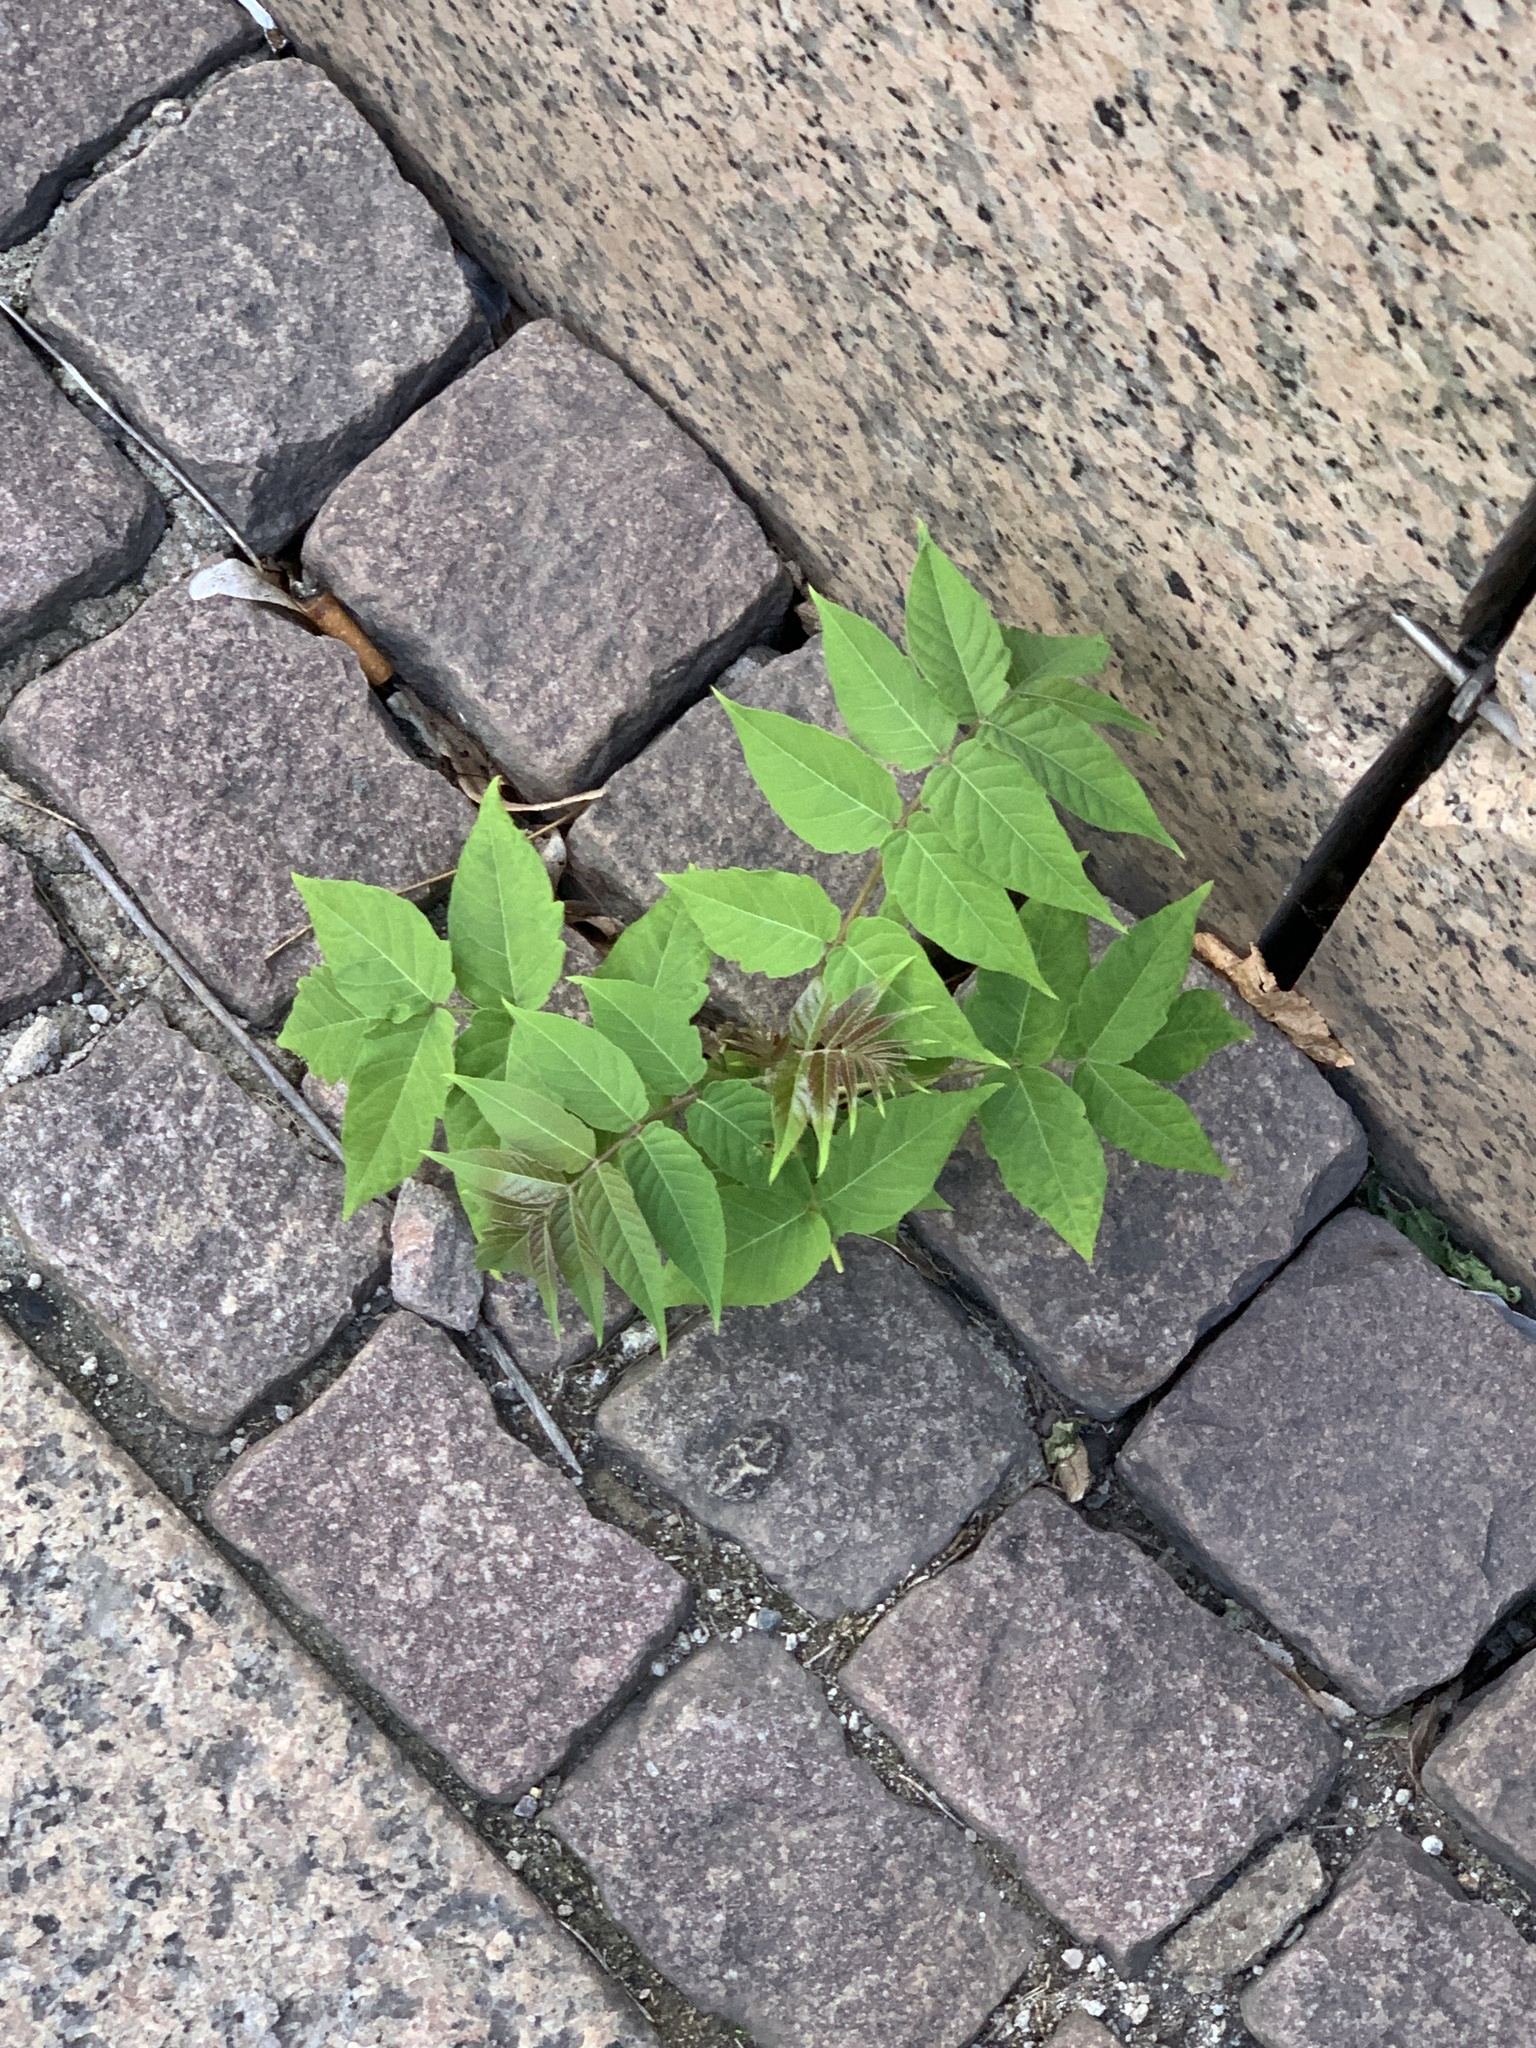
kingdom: Plantae
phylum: Tracheophyta
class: Magnoliopsida
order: Sapindales
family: Simaroubaceae
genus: Ailanthus
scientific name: Ailanthus altissima
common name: Tree-of-heaven
